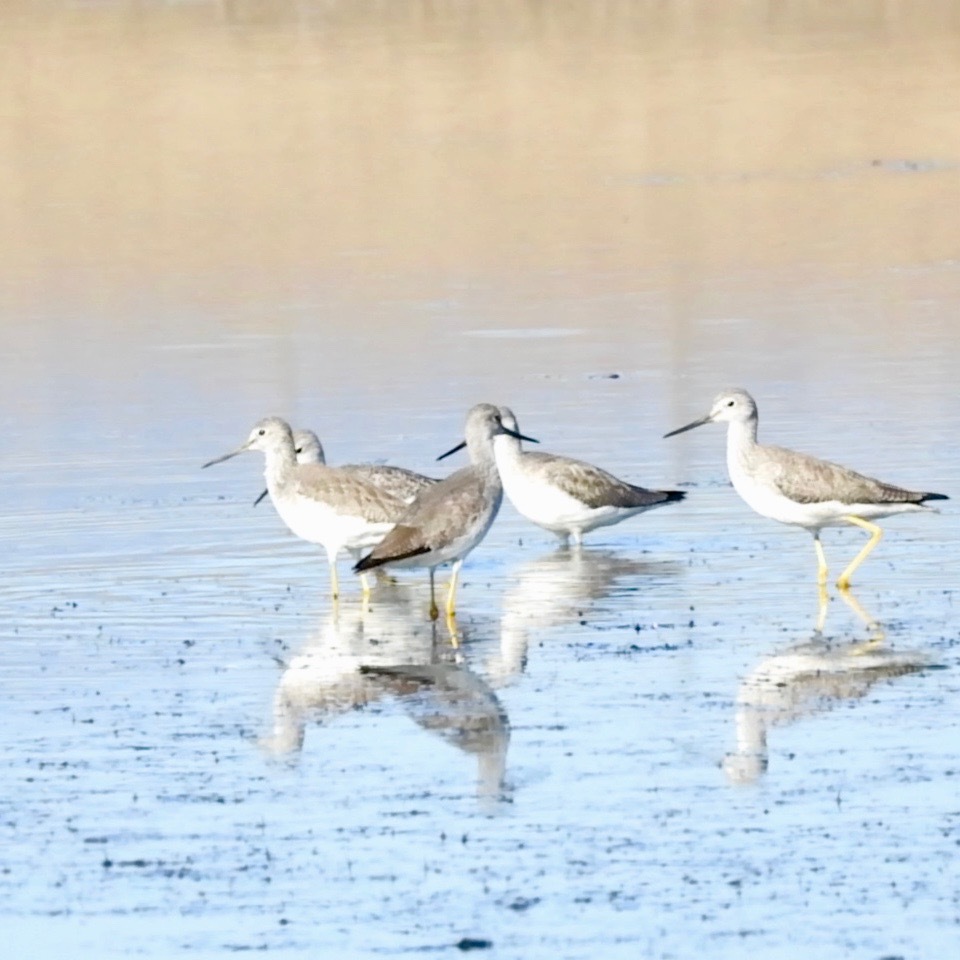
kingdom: Animalia
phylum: Chordata
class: Aves
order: Charadriiformes
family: Scolopacidae
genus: Tringa
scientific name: Tringa melanoleuca
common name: Greater yellowlegs
